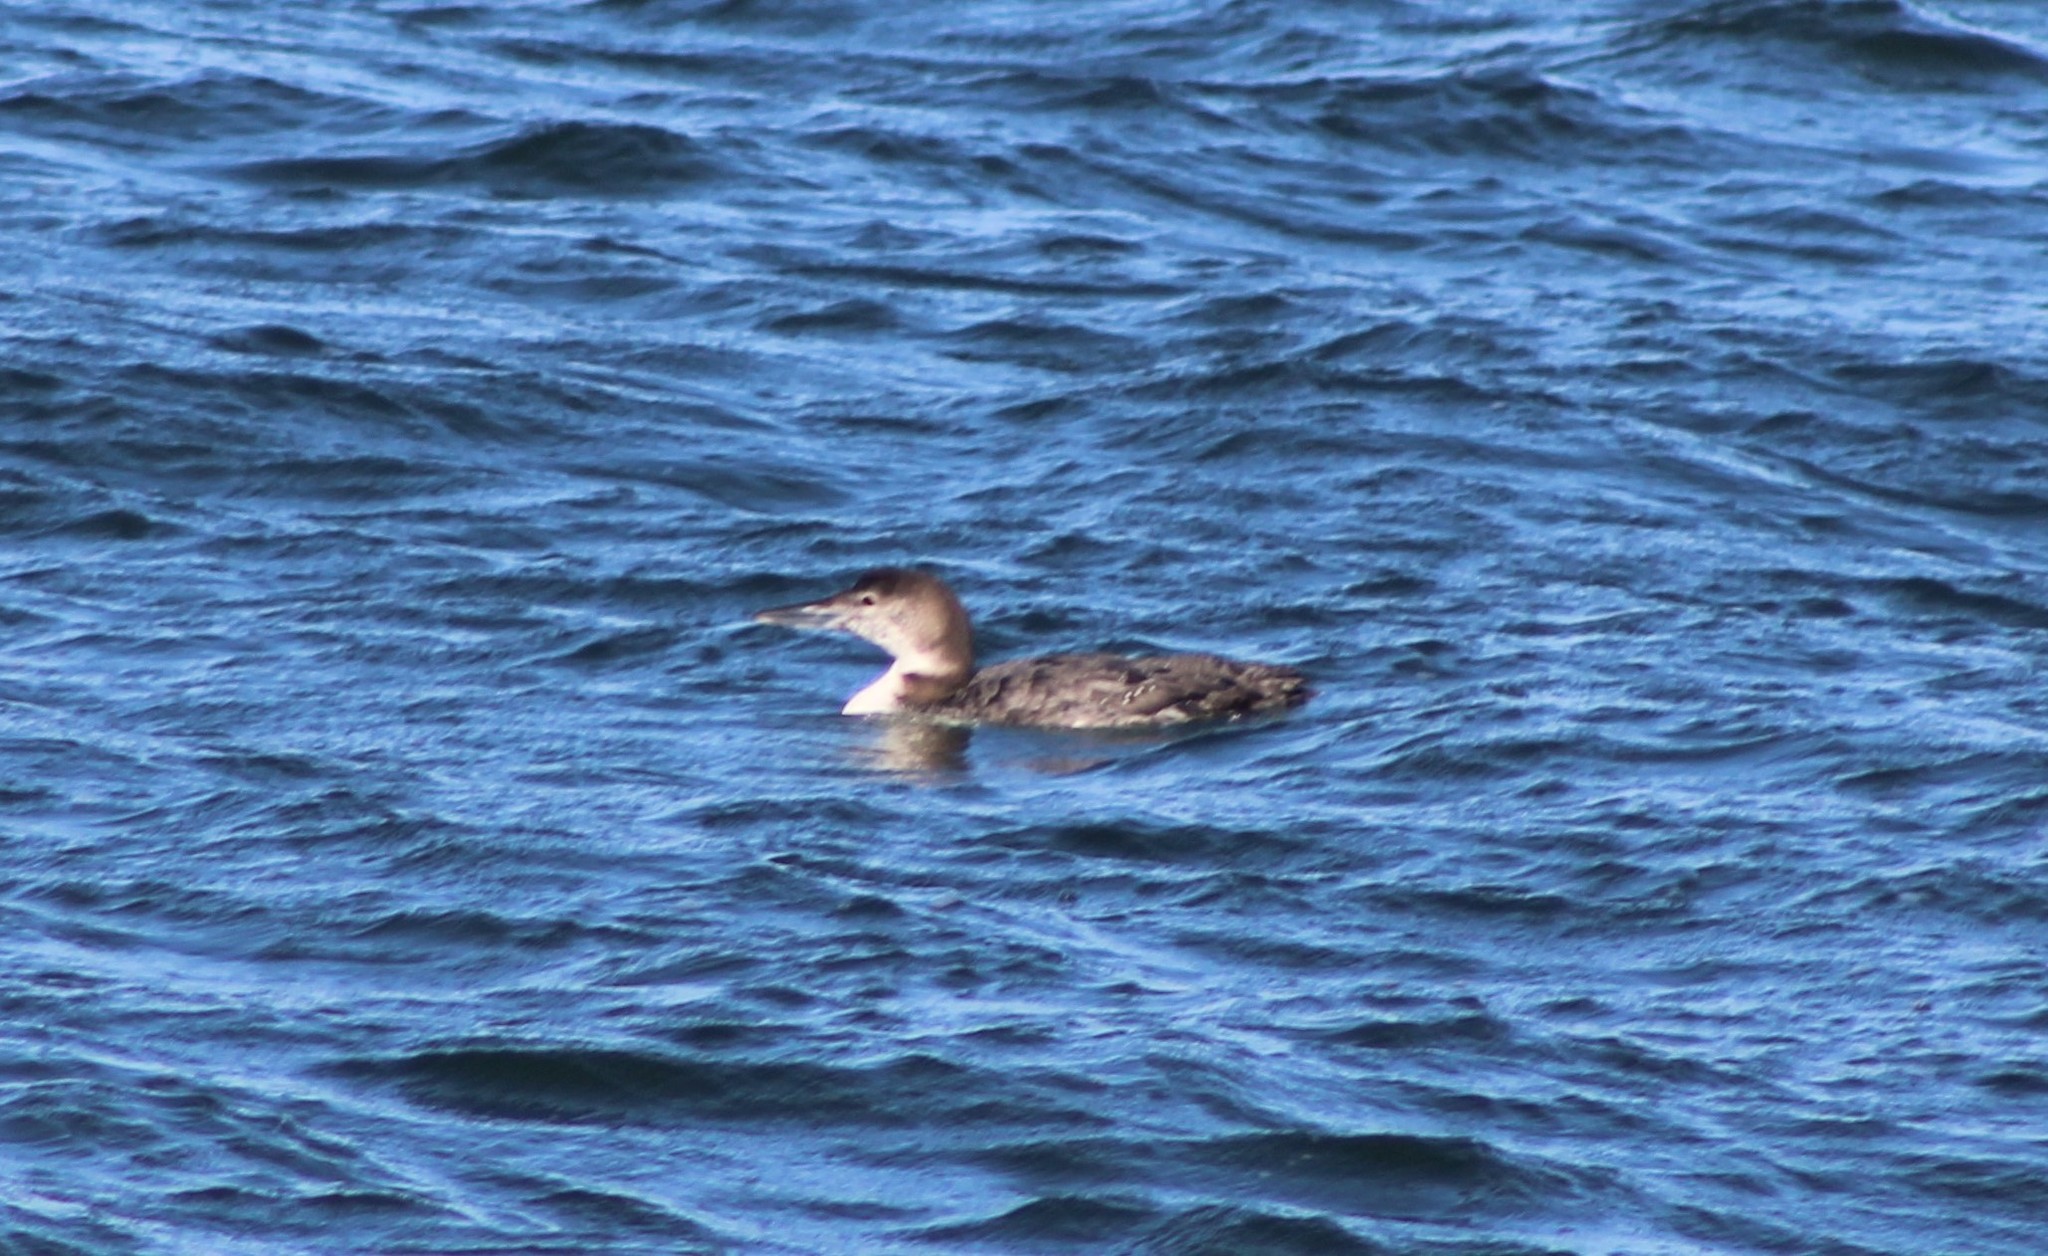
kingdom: Animalia
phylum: Chordata
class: Aves
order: Gaviiformes
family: Gaviidae
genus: Gavia
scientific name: Gavia immer
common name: Common loon
